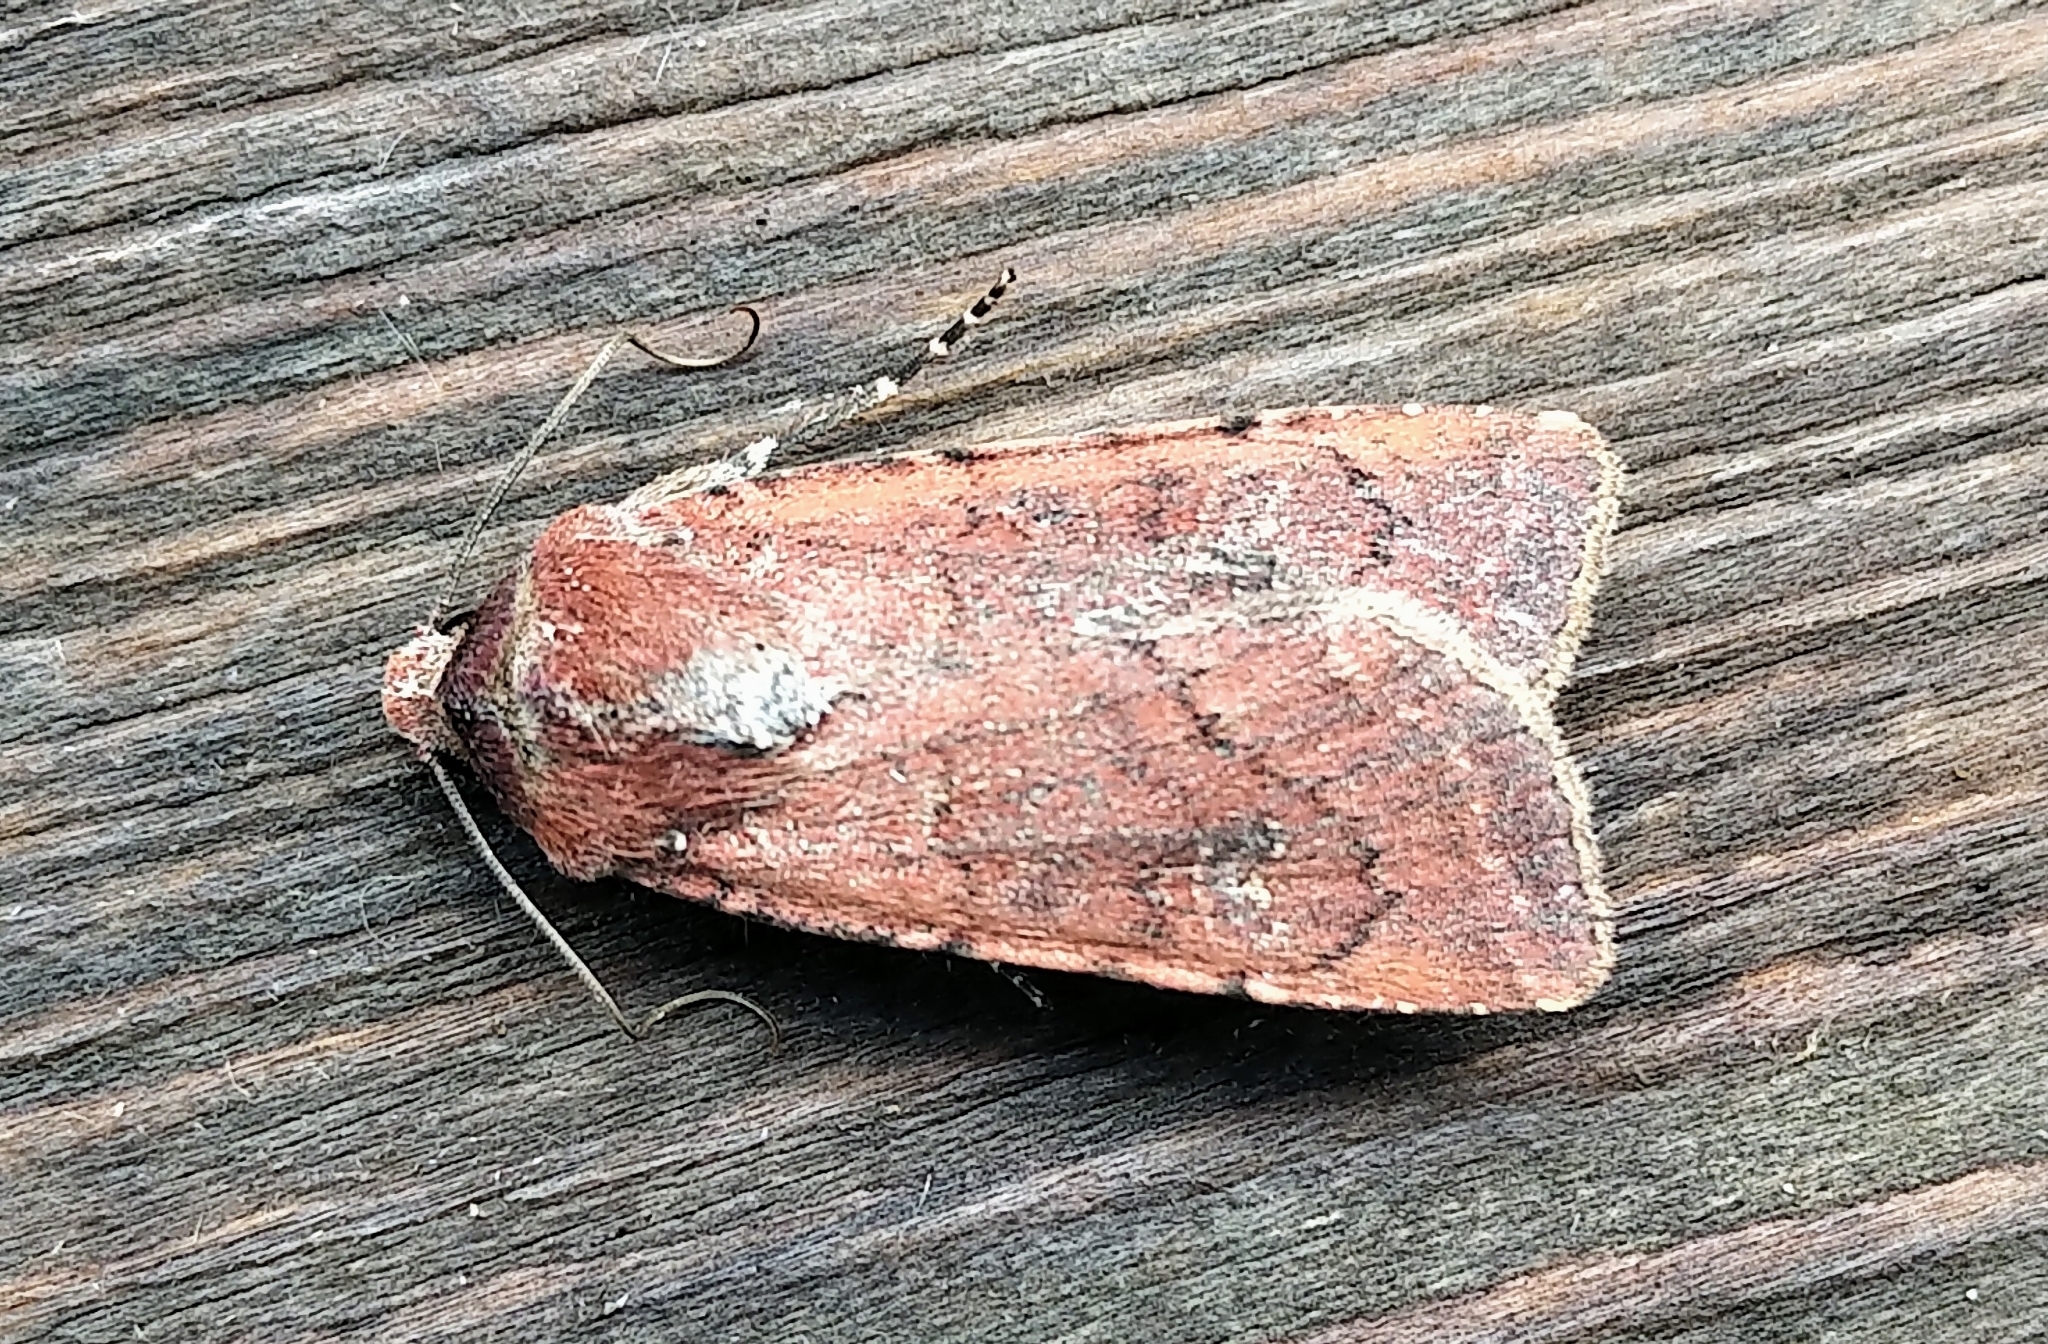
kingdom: Animalia
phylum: Arthropoda
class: Insecta
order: Lepidoptera
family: Noctuidae
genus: Euxoa
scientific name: Euxoa mimallonis
